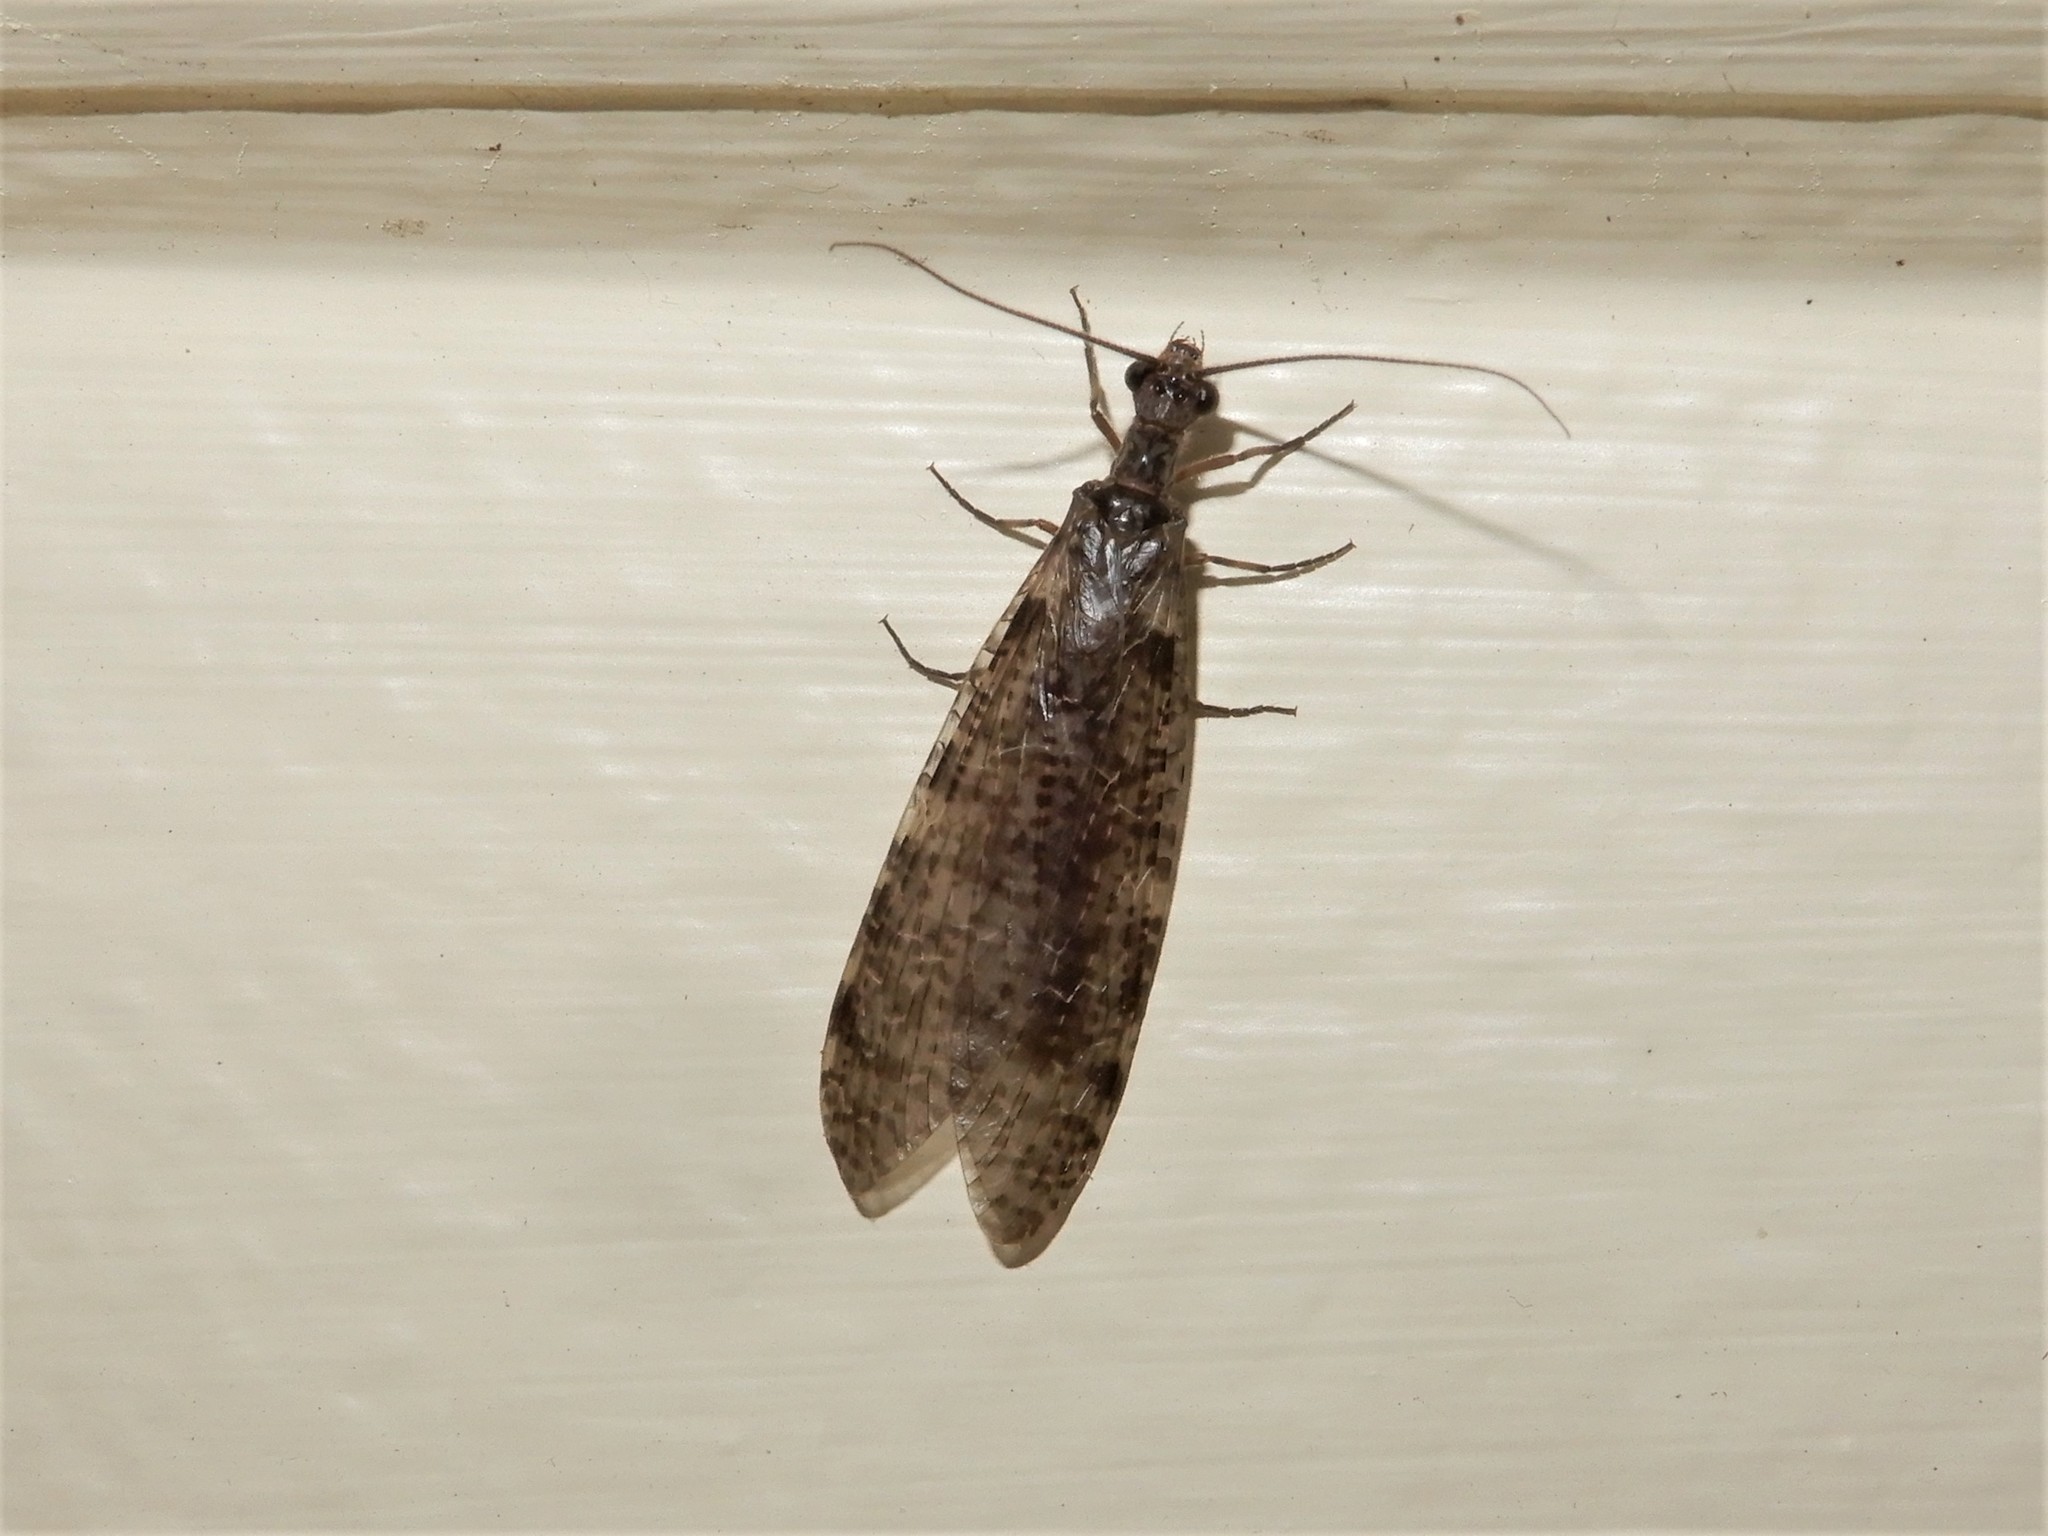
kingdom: Animalia
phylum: Arthropoda
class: Insecta
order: Megaloptera
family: Corydalidae
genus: Archichauliodes
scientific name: Archichauliodes diversus
